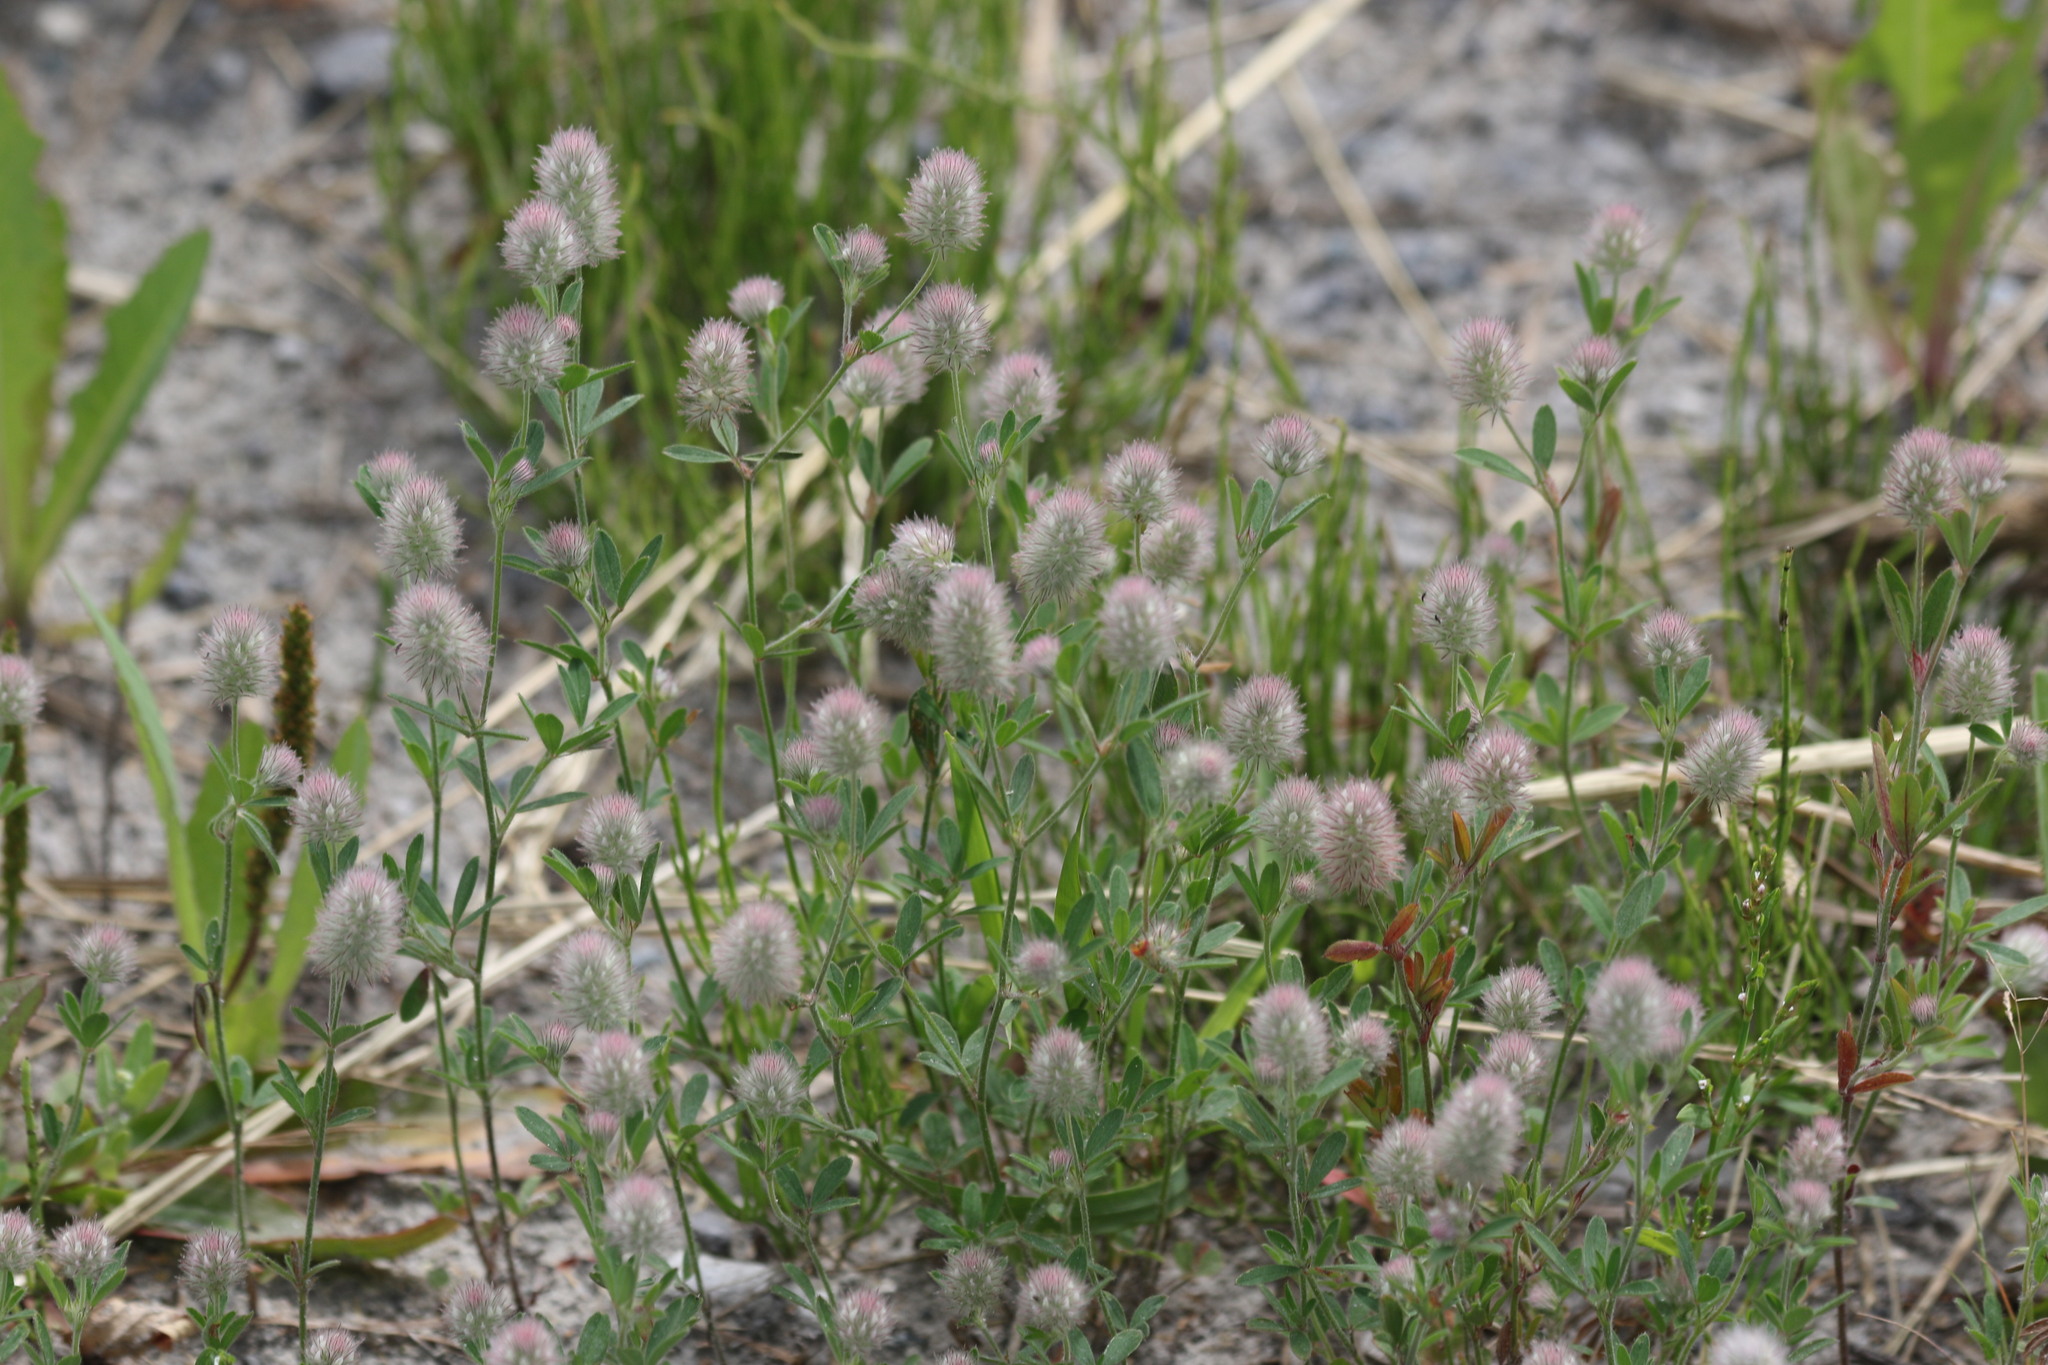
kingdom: Plantae
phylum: Tracheophyta
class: Magnoliopsida
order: Fabales
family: Fabaceae
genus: Trifolium
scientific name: Trifolium arvense
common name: Hare's-foot clover
